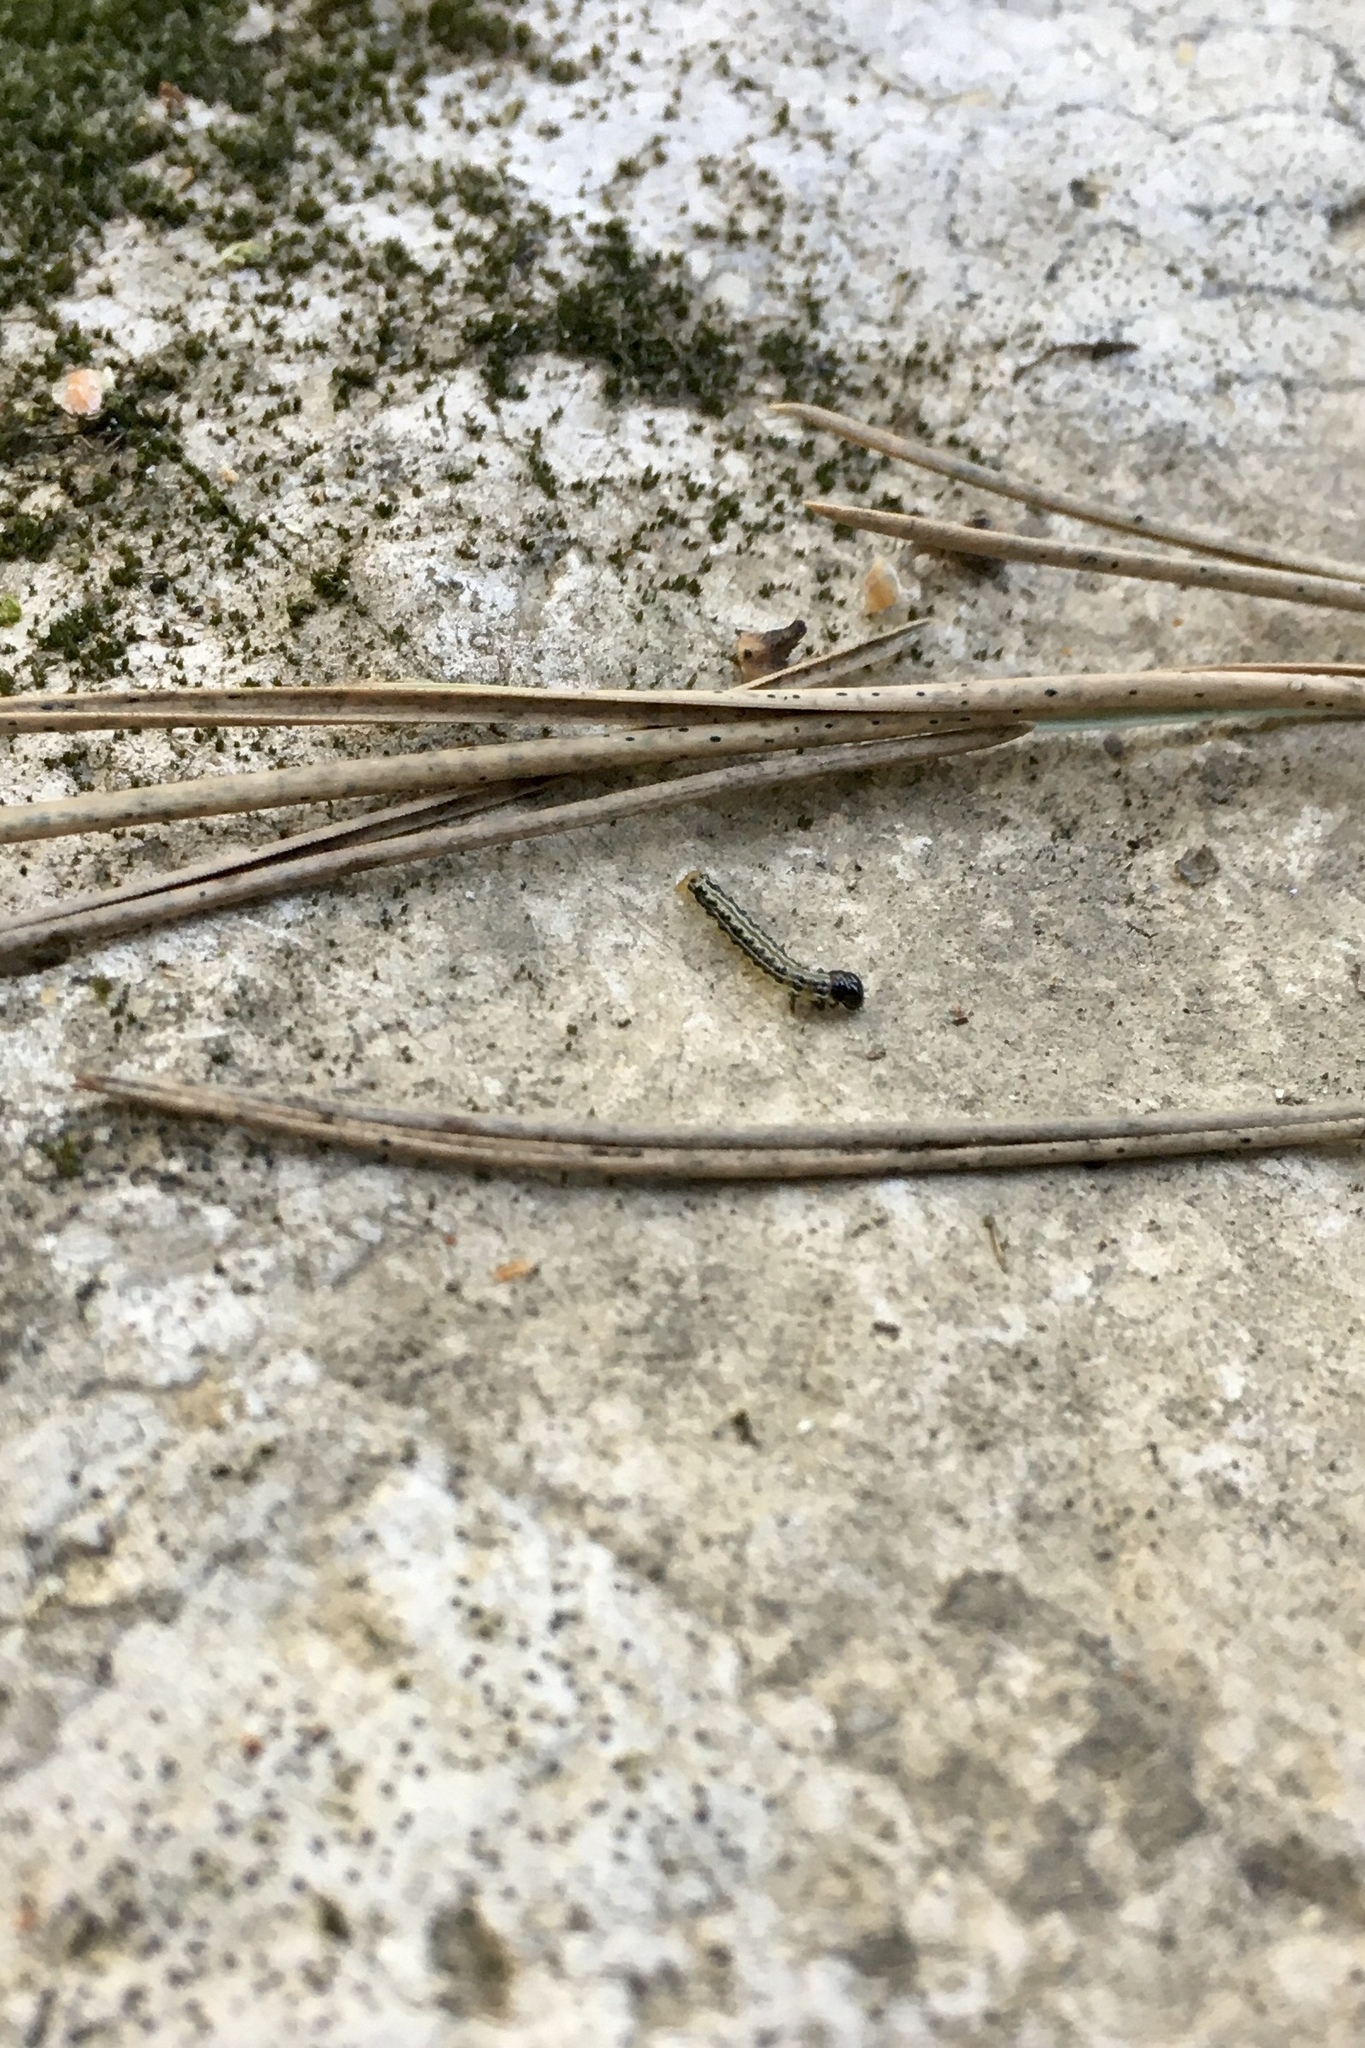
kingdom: Animalia
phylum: Arthropoda
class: Insecta
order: Lepidoptera
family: Crambidae
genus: Cydalima
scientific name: Cydalima perspectalis
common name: Box tree moth
